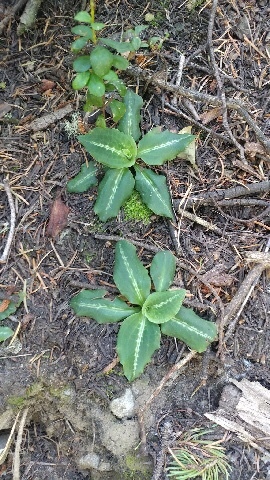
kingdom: Plantae
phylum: Tracheophyta
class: Liliopsida
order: Asparagales
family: Orchidaceae
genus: Goodyera
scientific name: Goodyera oblongifolia
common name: Giant rattlesnake-plantain
